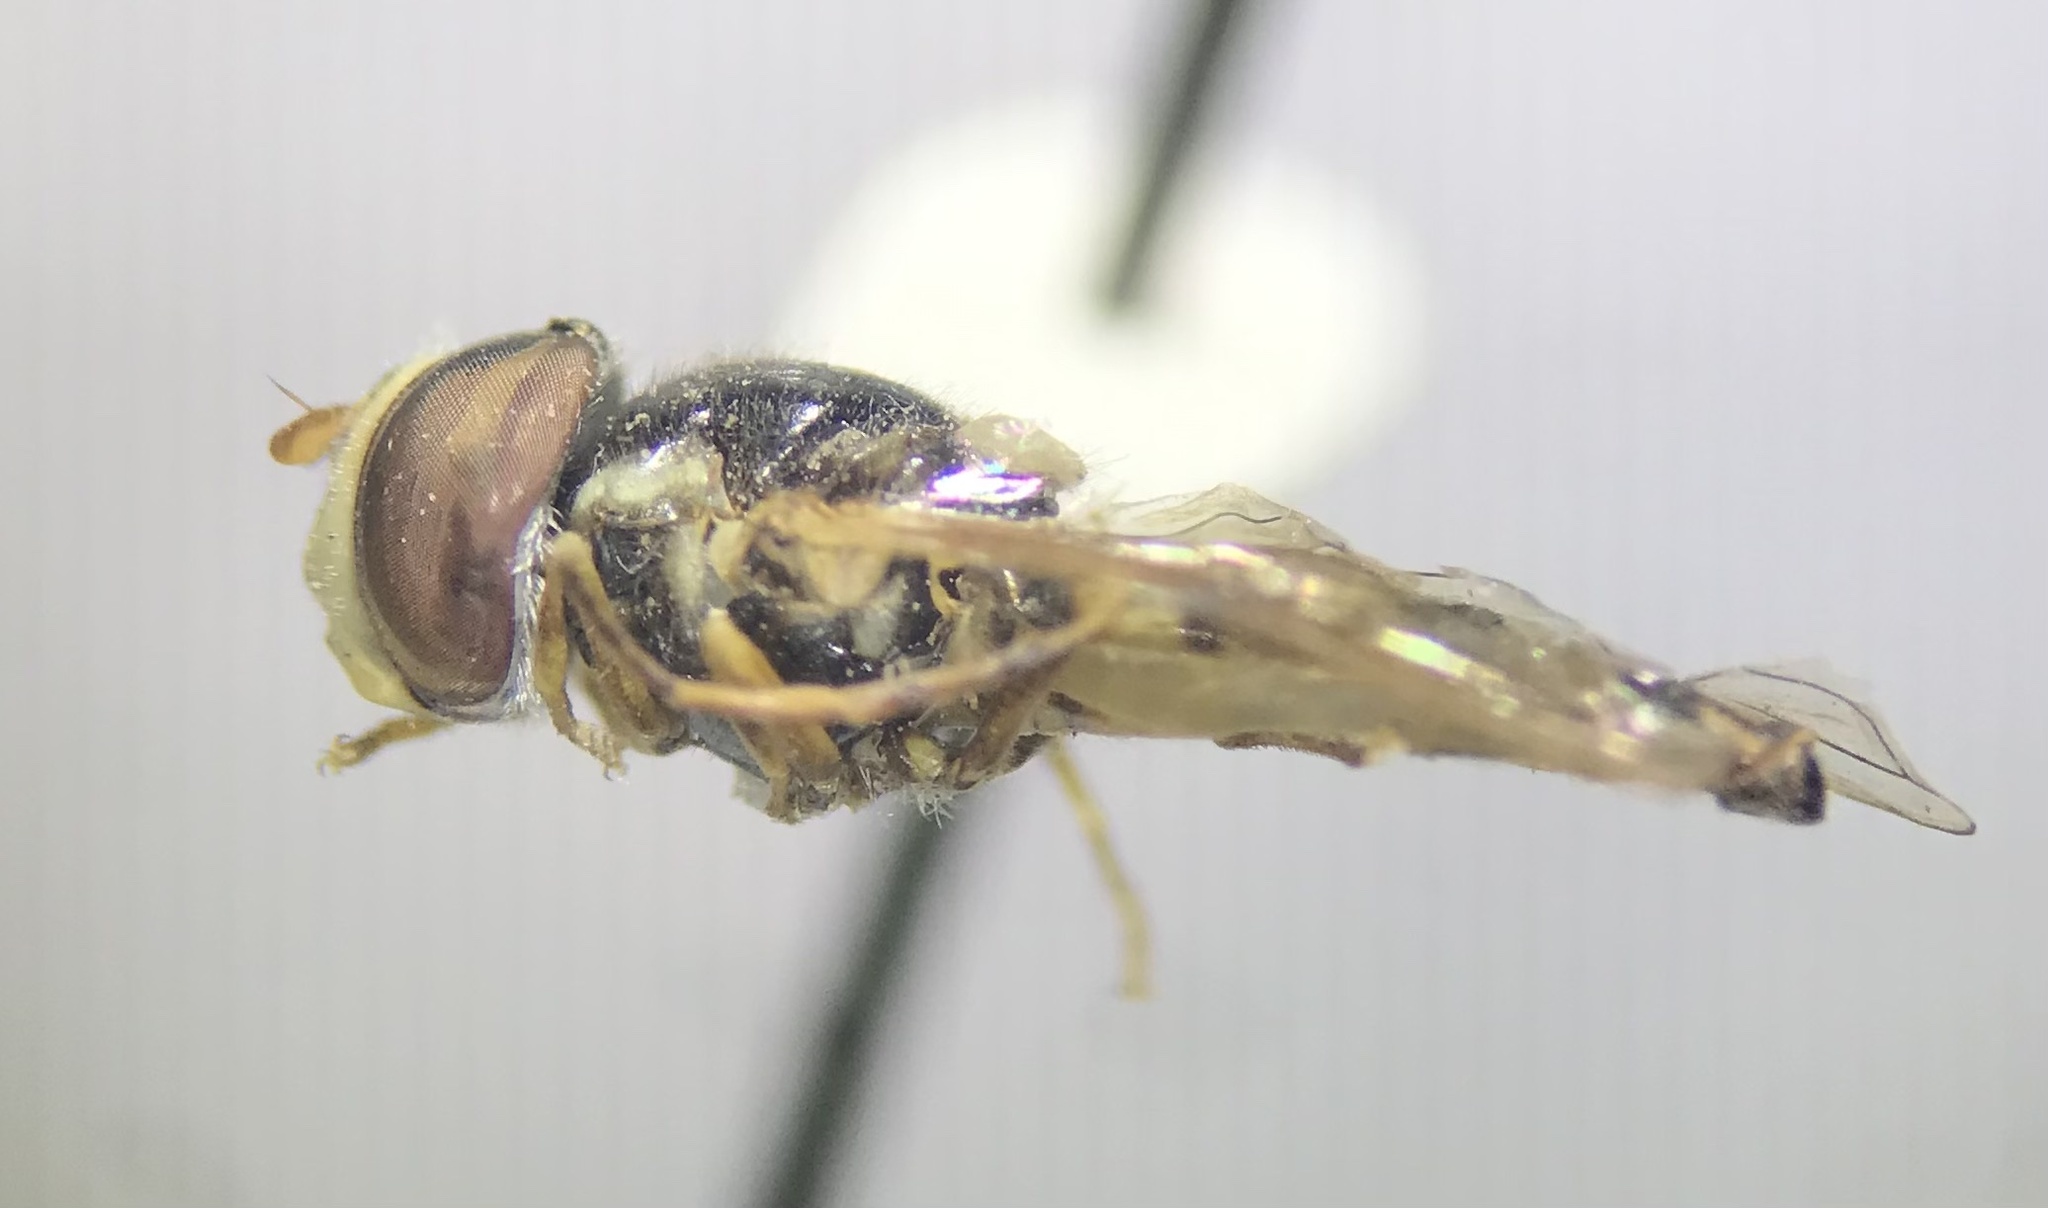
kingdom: Animalia
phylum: Arthropoda
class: Insecta
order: Diptera
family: Syrphidae
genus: Allograpta
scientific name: Allograpta exotica
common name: Syrphid fly
